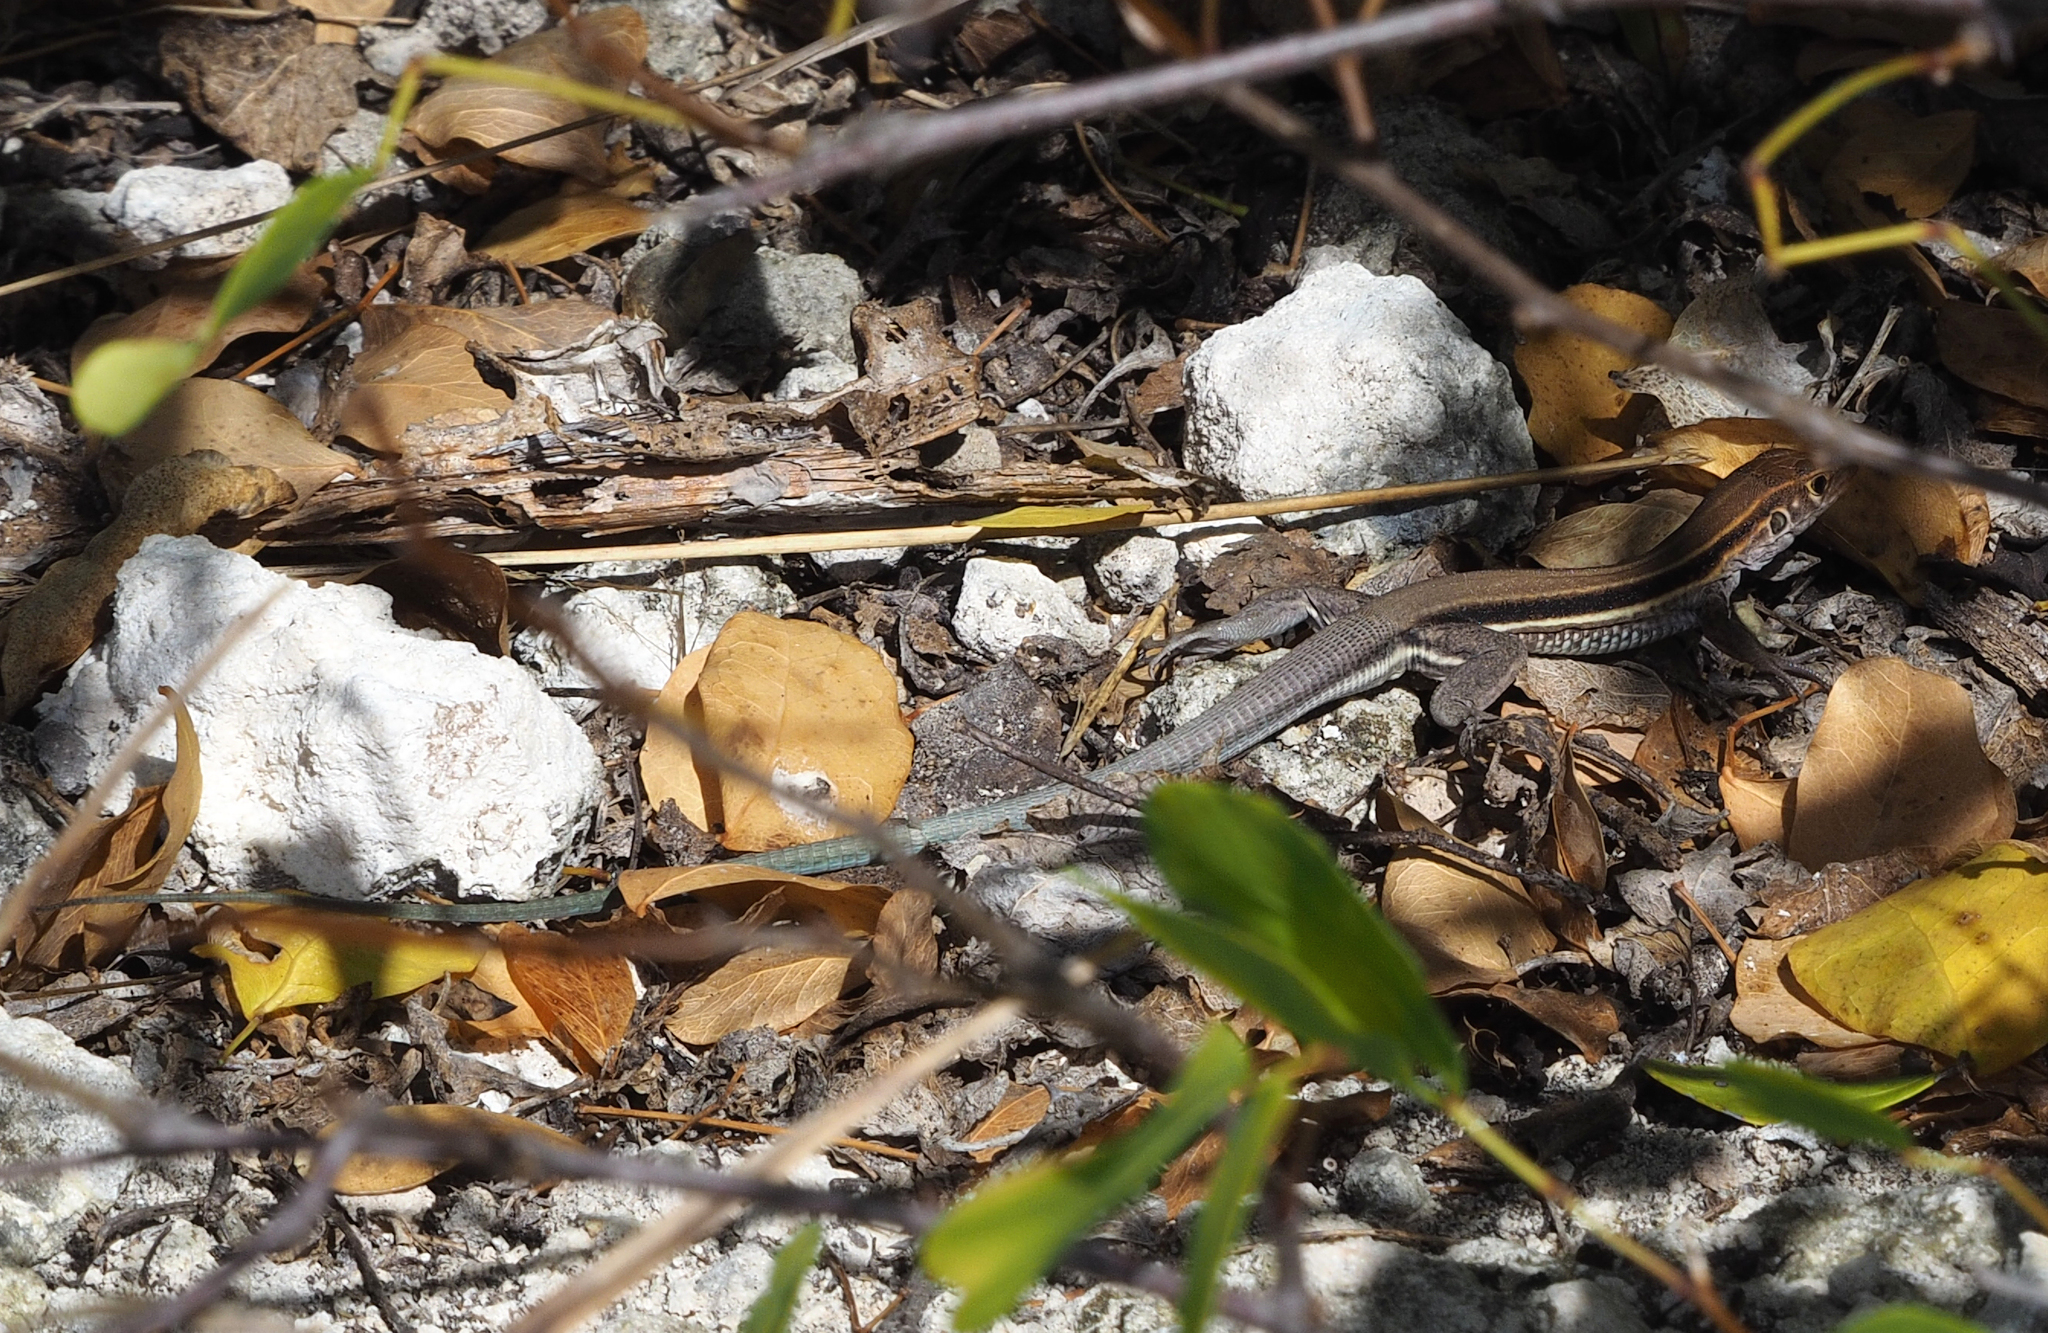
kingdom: Animalia
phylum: Chordata
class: Squamata
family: Teiidae
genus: Pholidoscelis
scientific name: Pholidoscelis auberi
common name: Auber's ameiva
